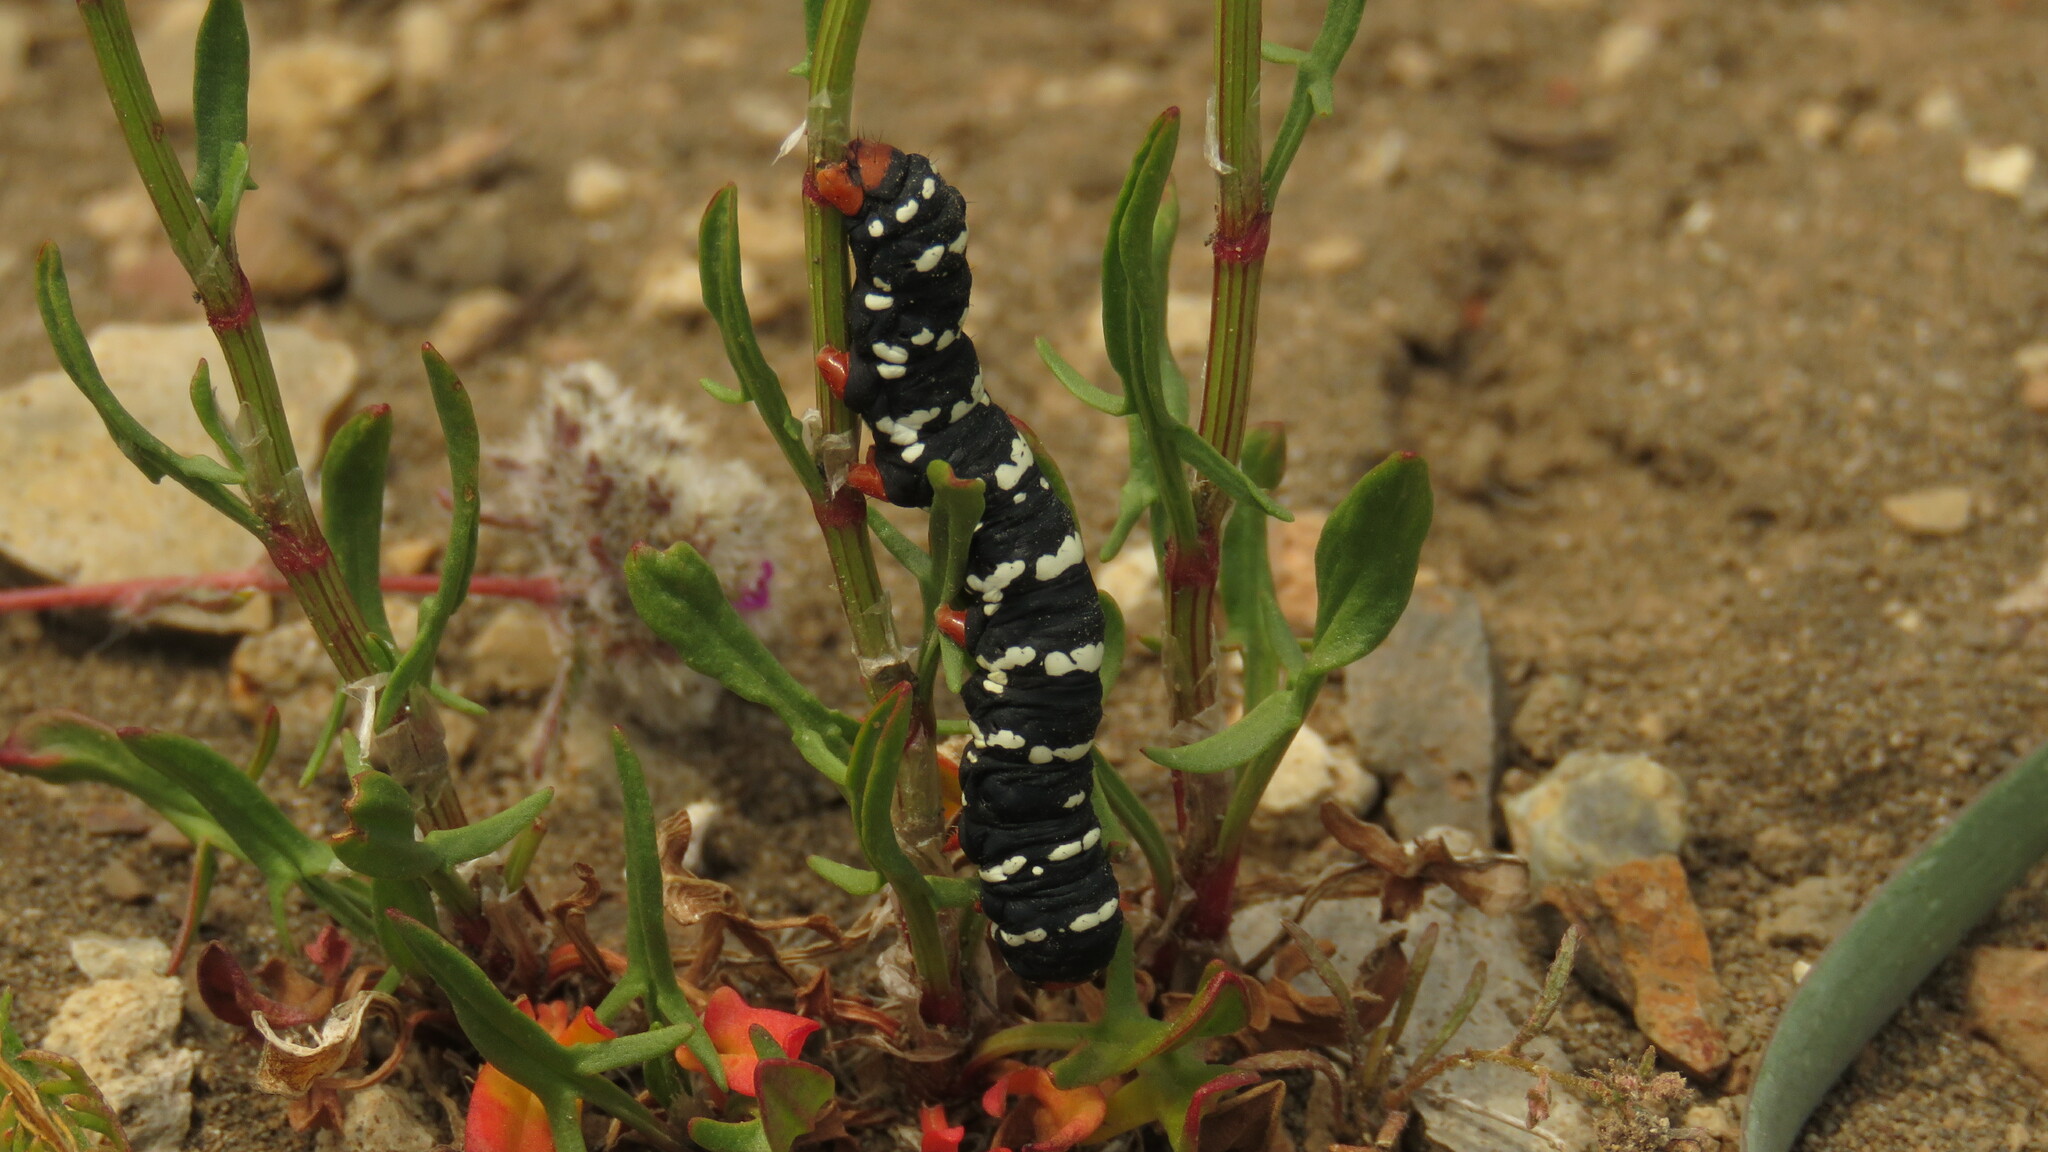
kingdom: Animalia
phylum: Arthropoda
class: Insecta
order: Lepidoptera
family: Noctuidae
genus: Chlanidophora
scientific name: Chlanidophora patagiata
